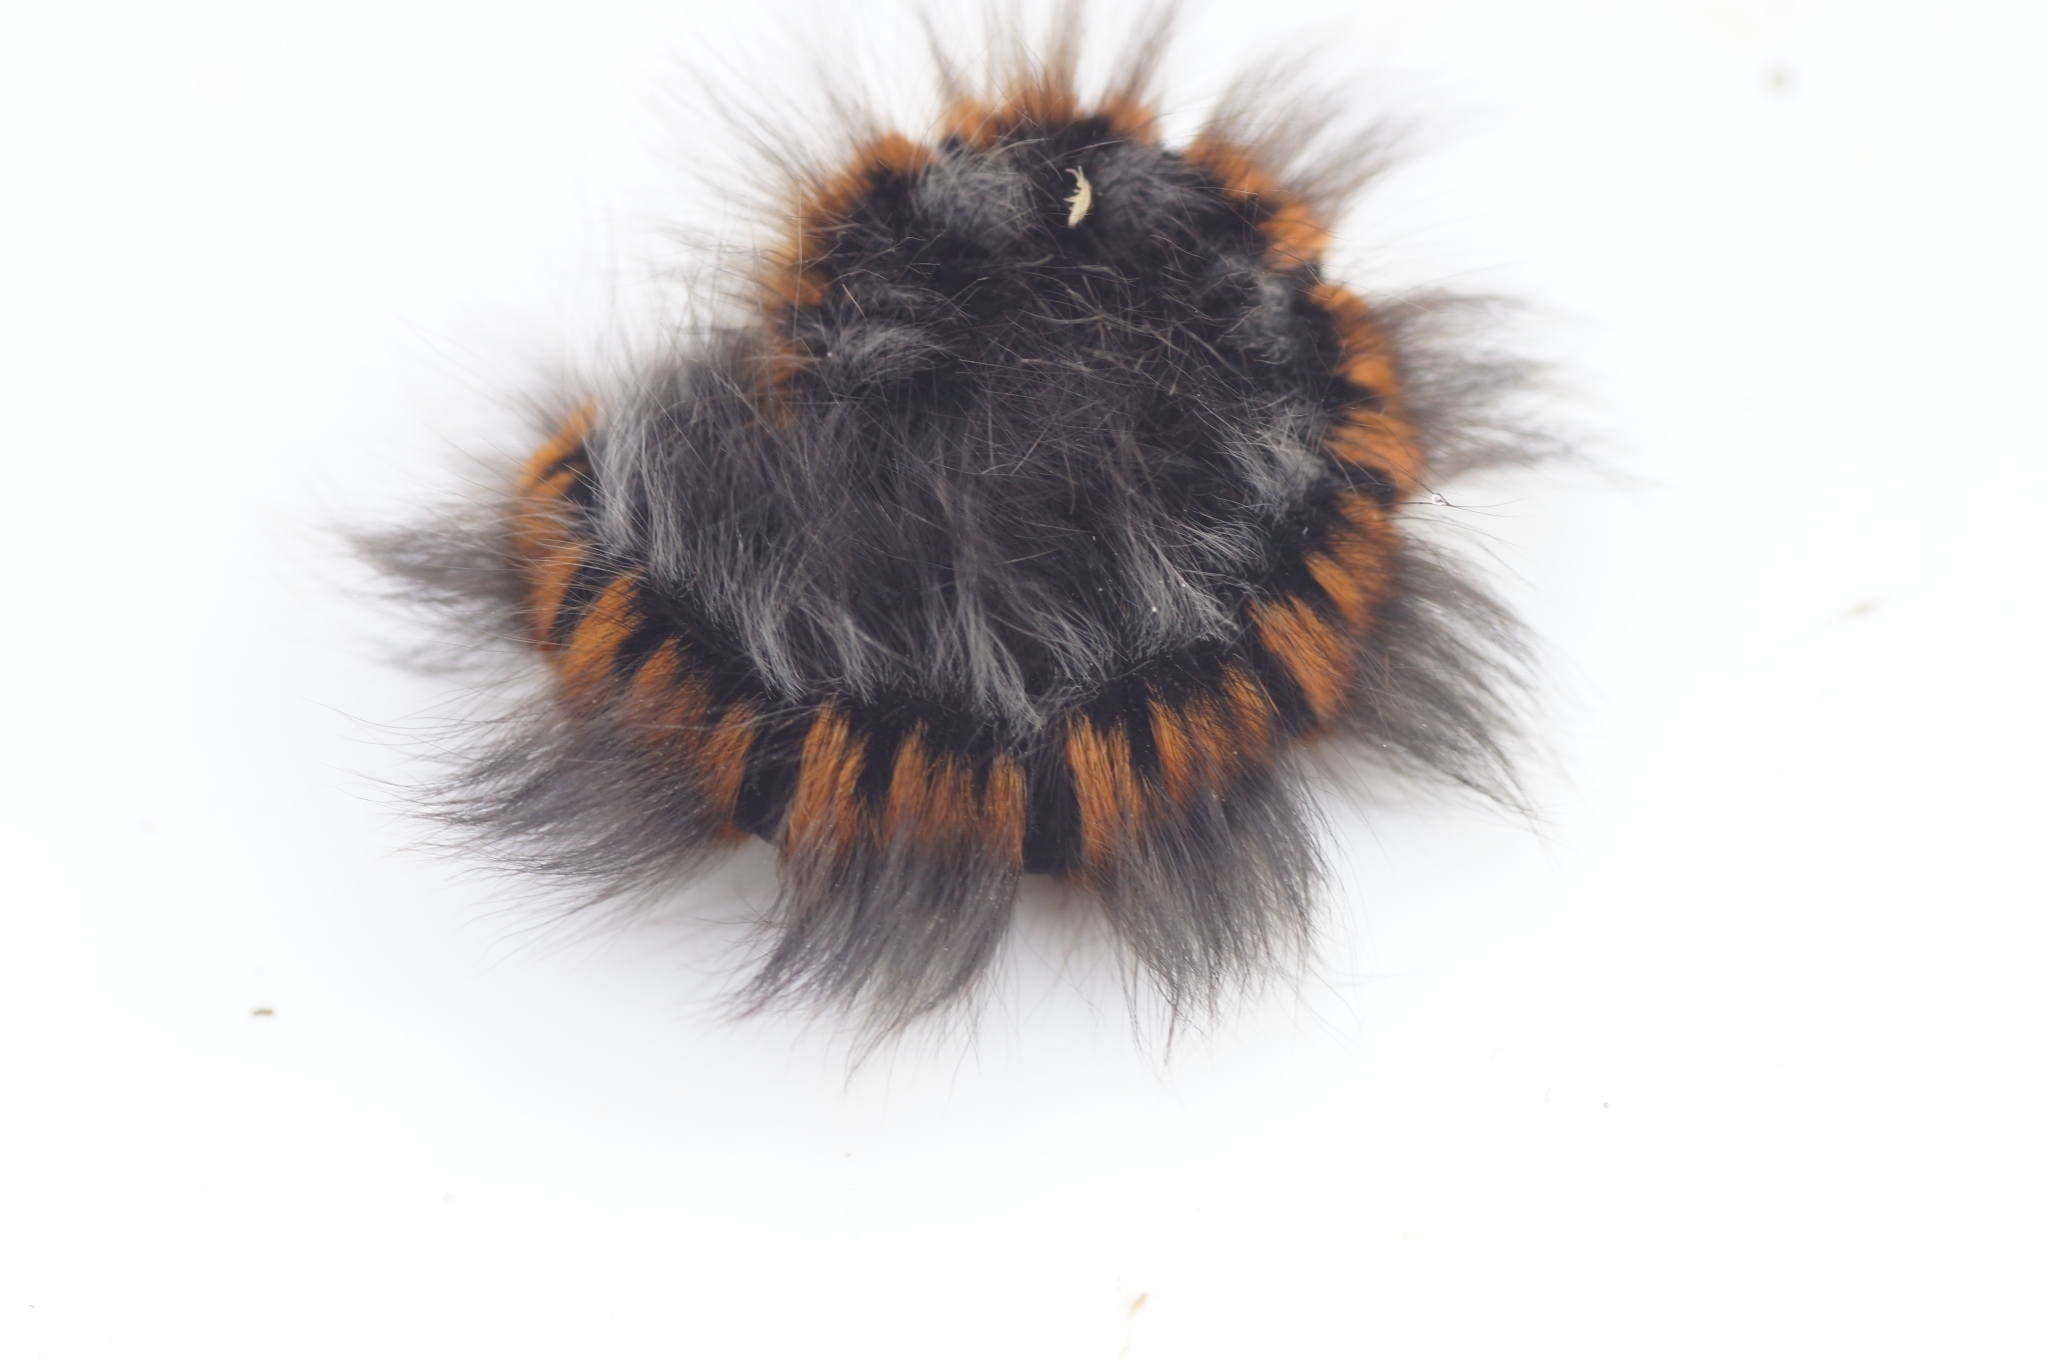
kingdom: Animalia
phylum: Arthropoda
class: Insecta
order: Lepidoptera
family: Lasiocampidae
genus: Macrothylacia
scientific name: Macrothylacia rubi
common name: Fox moth
